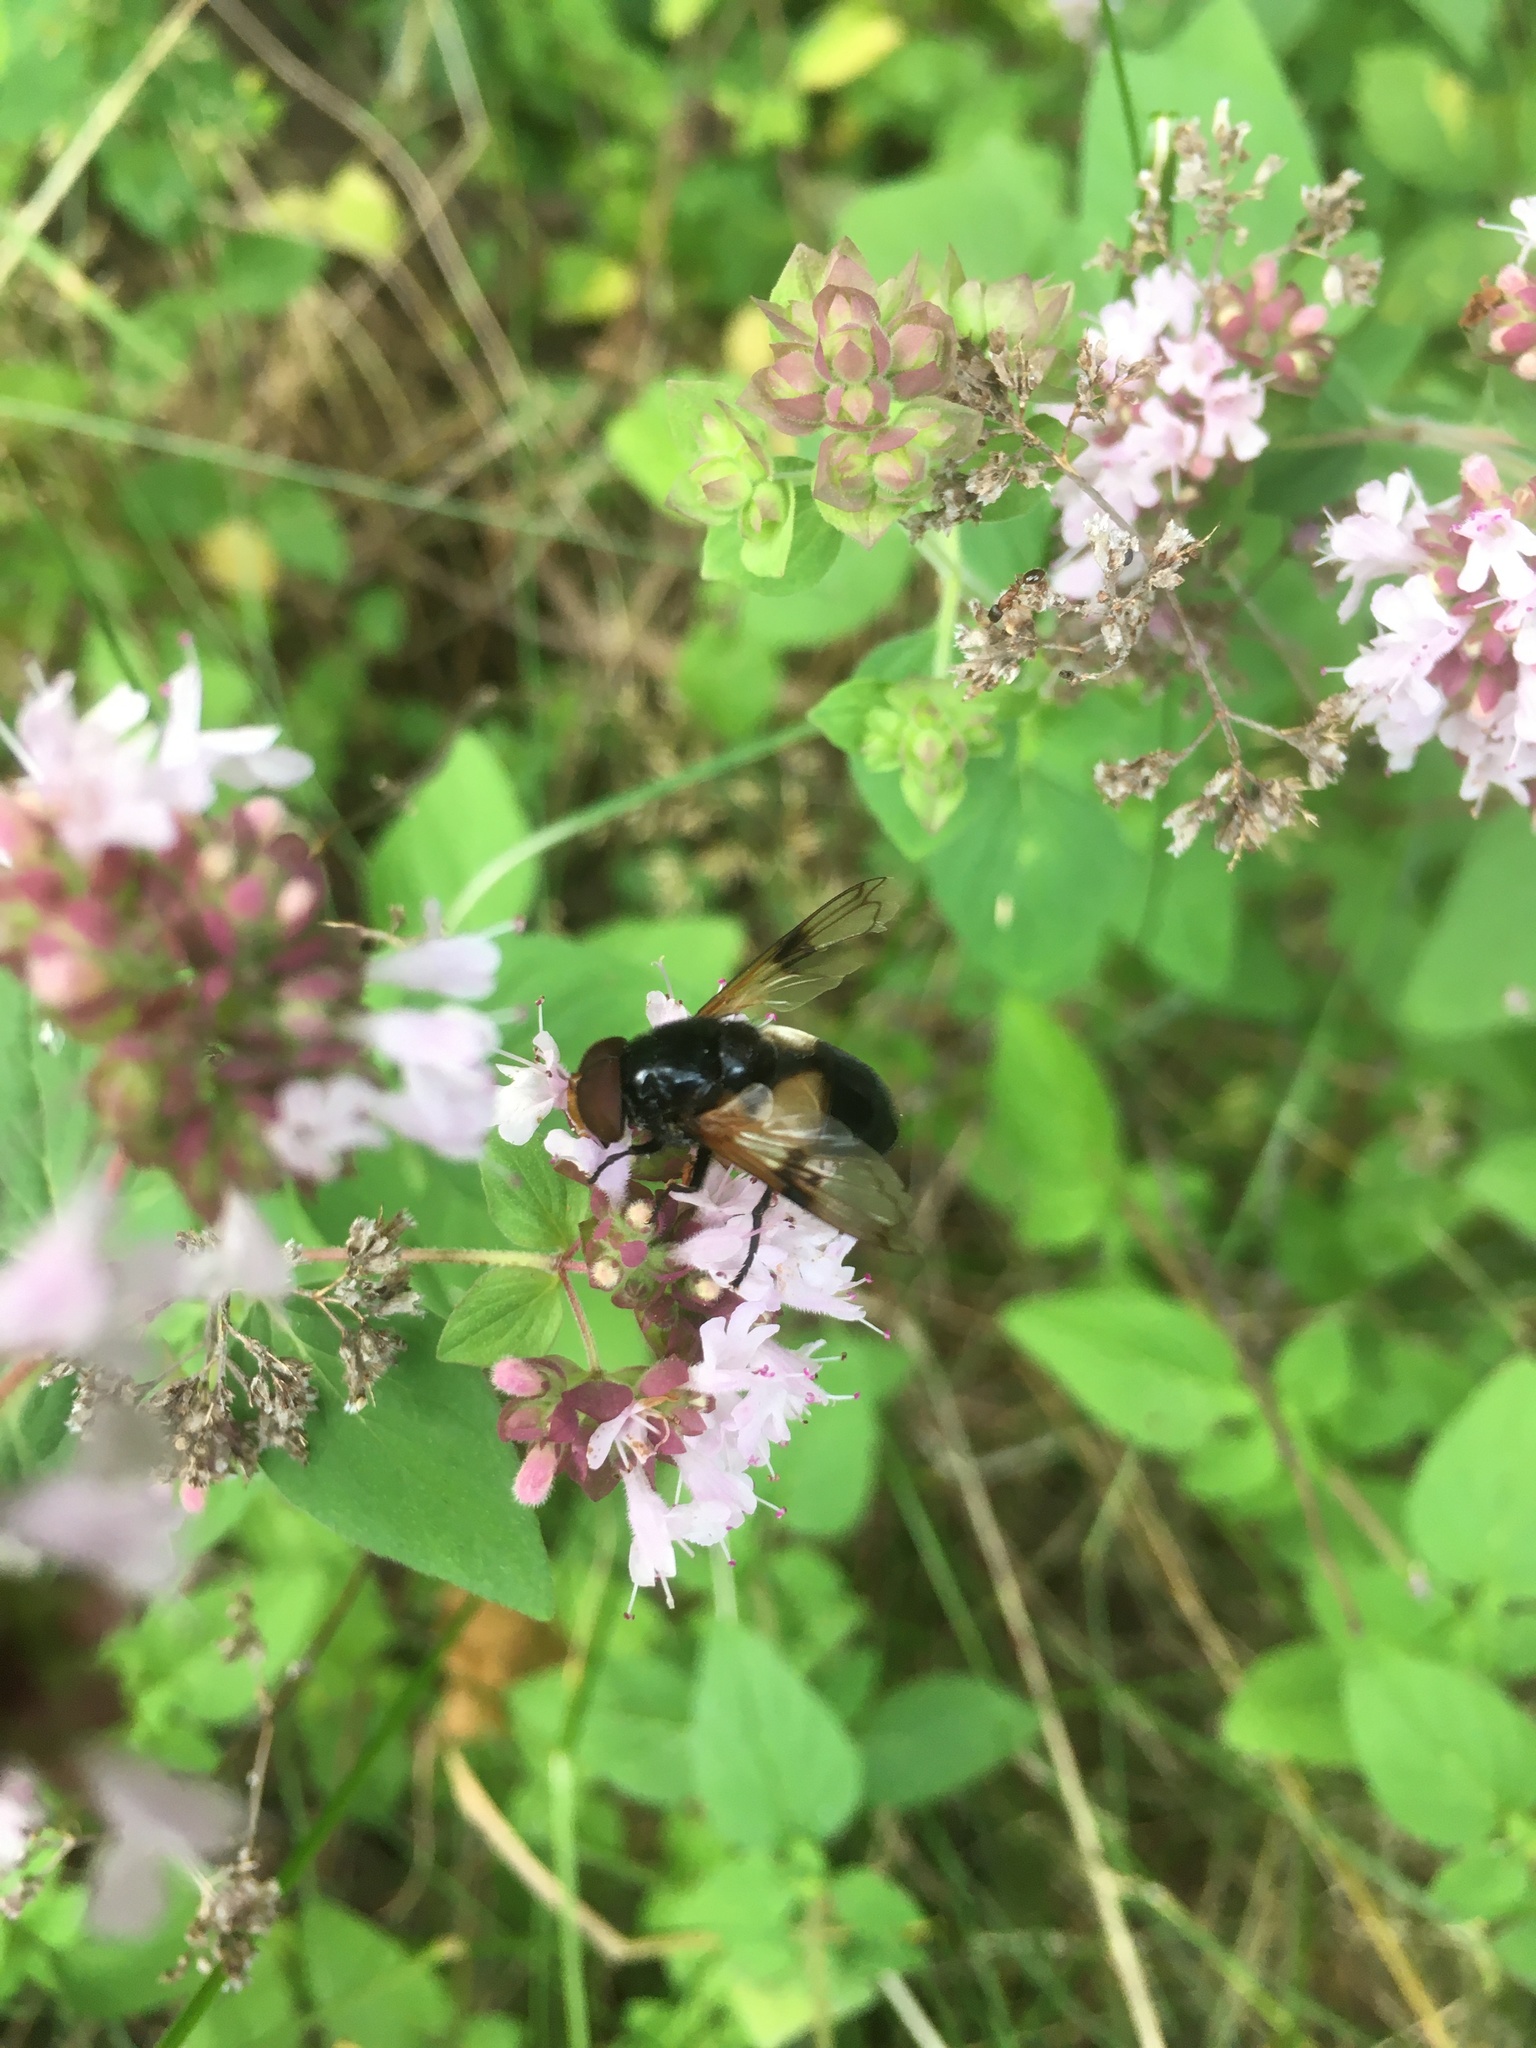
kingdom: Animalia
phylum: Arthropoda
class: Insecta
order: Diptera
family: Syrphidae
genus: Volucella
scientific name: Volucella pellucens
